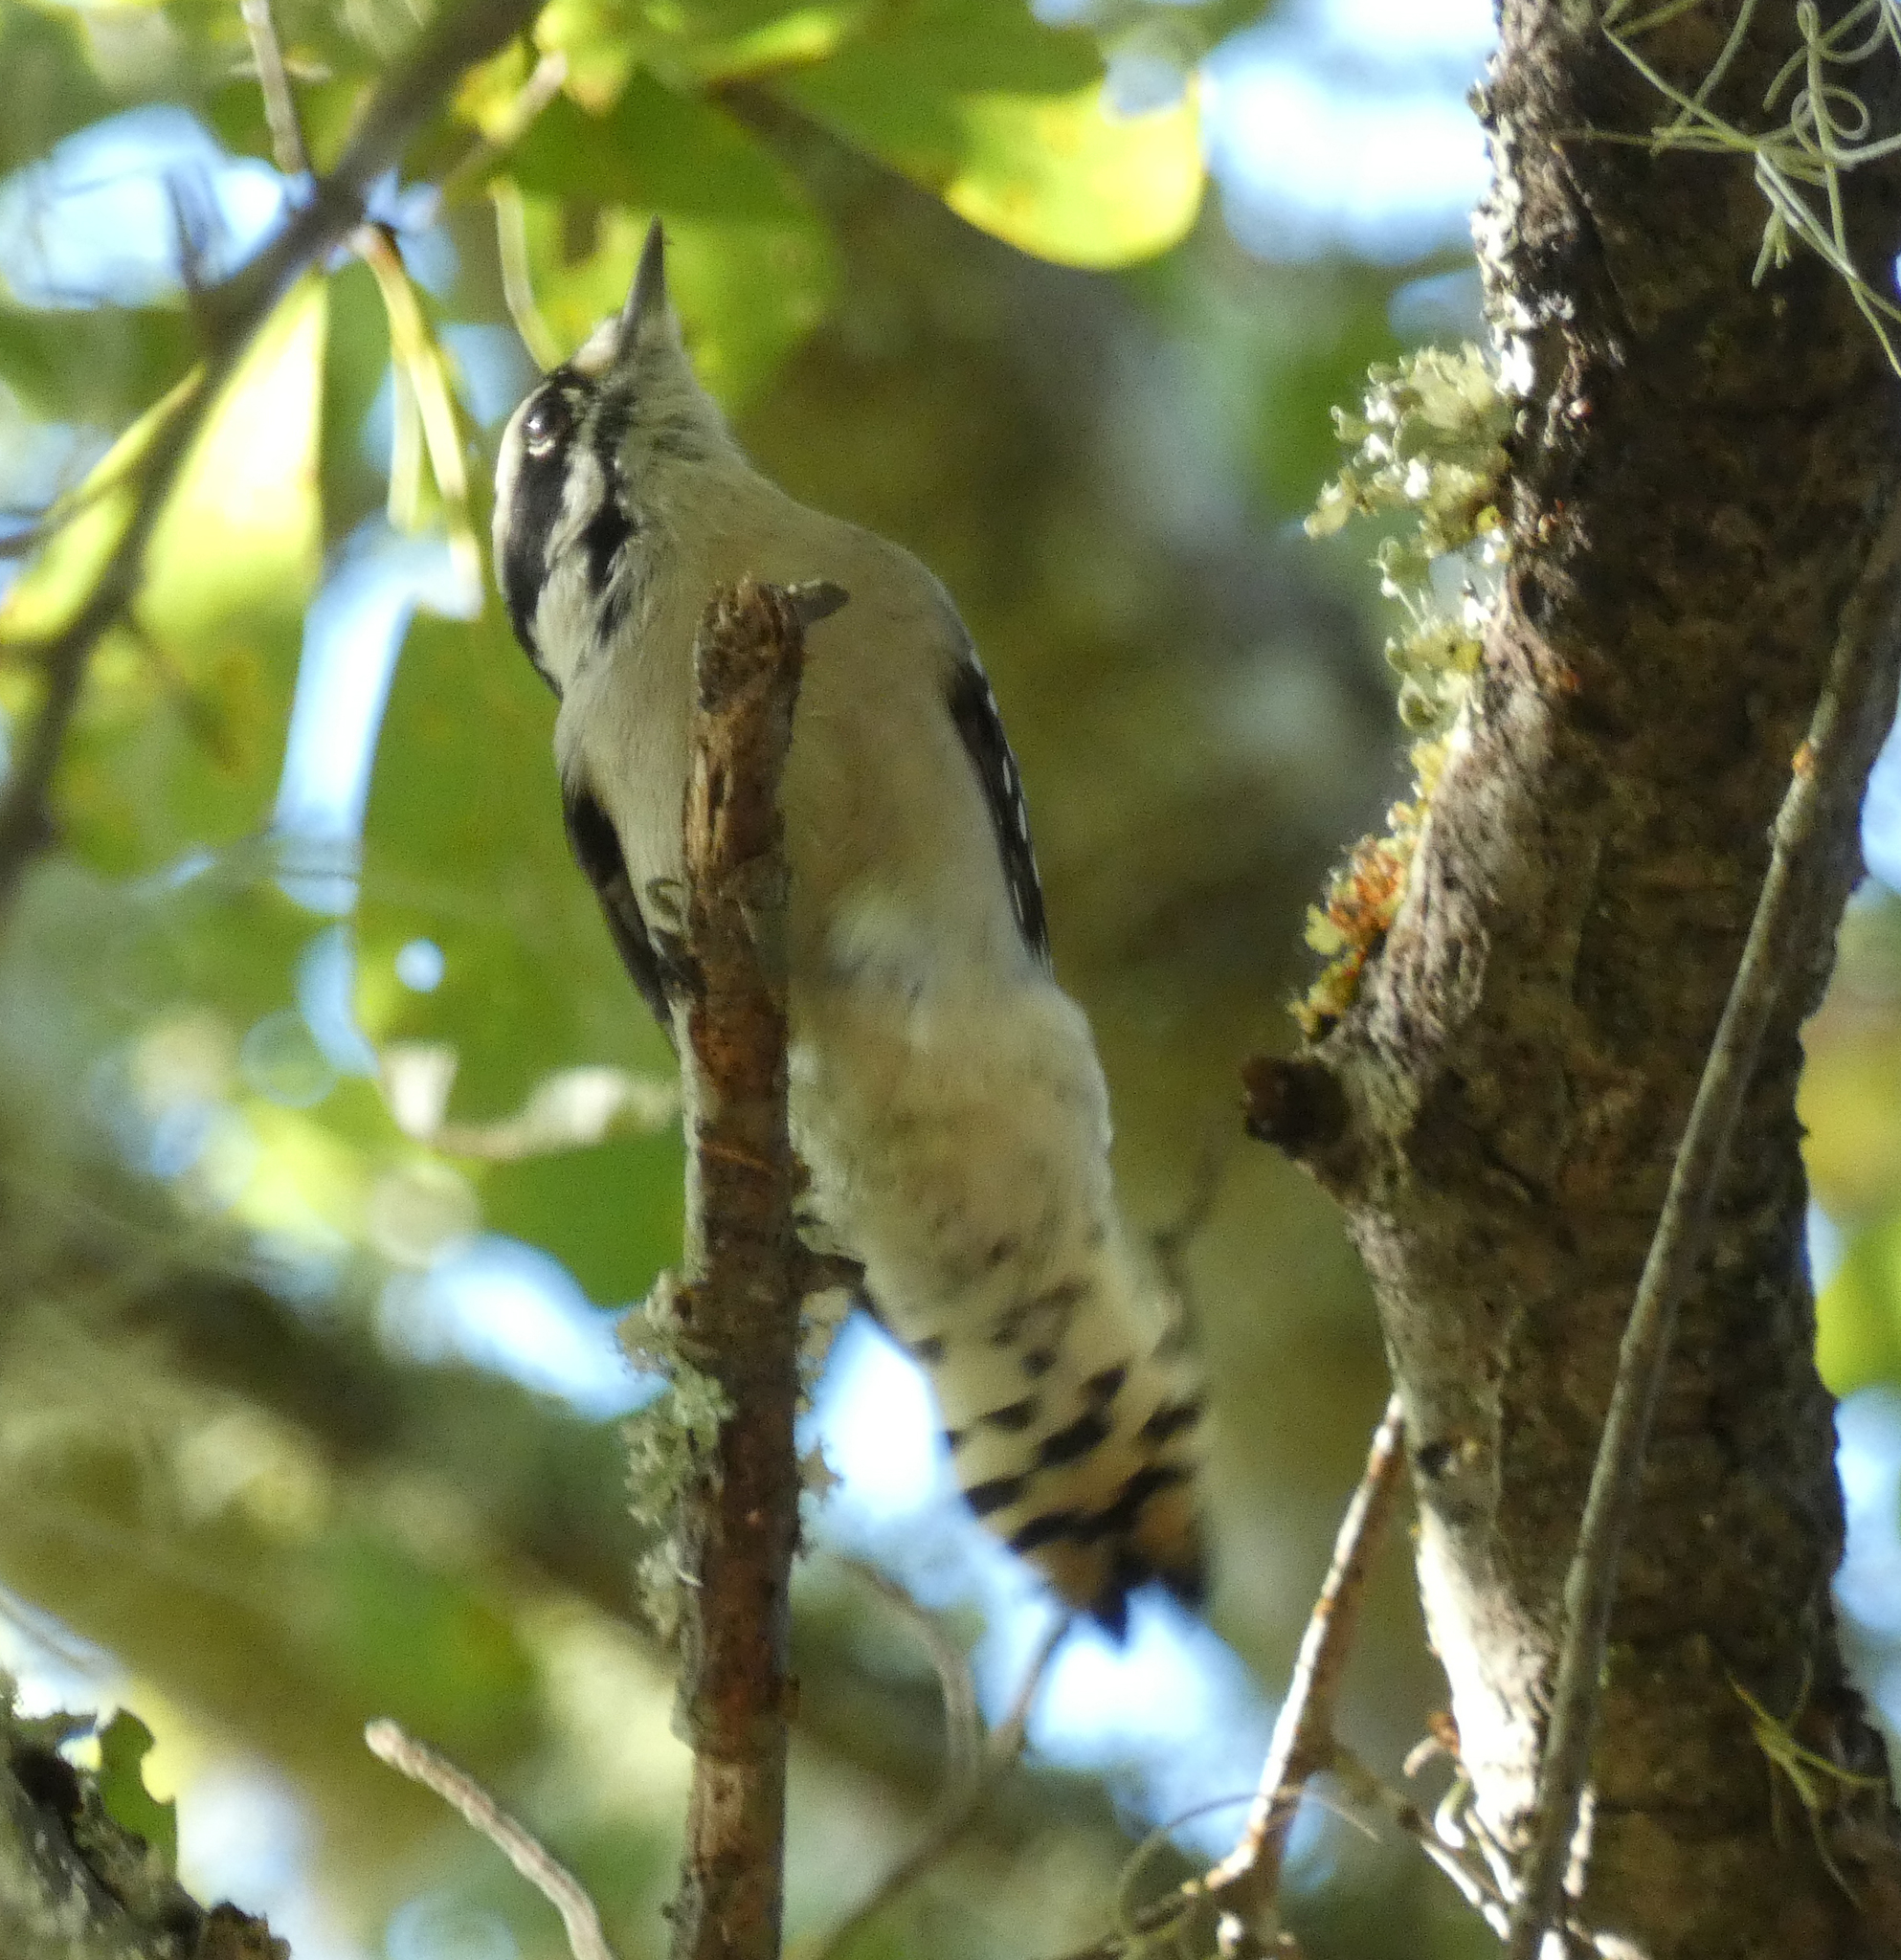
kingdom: Animalia
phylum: Chordata
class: Aves
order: Piciformes
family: Picidae
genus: Dryobates
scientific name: Dryobates pubescens
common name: Downy woodpecker
